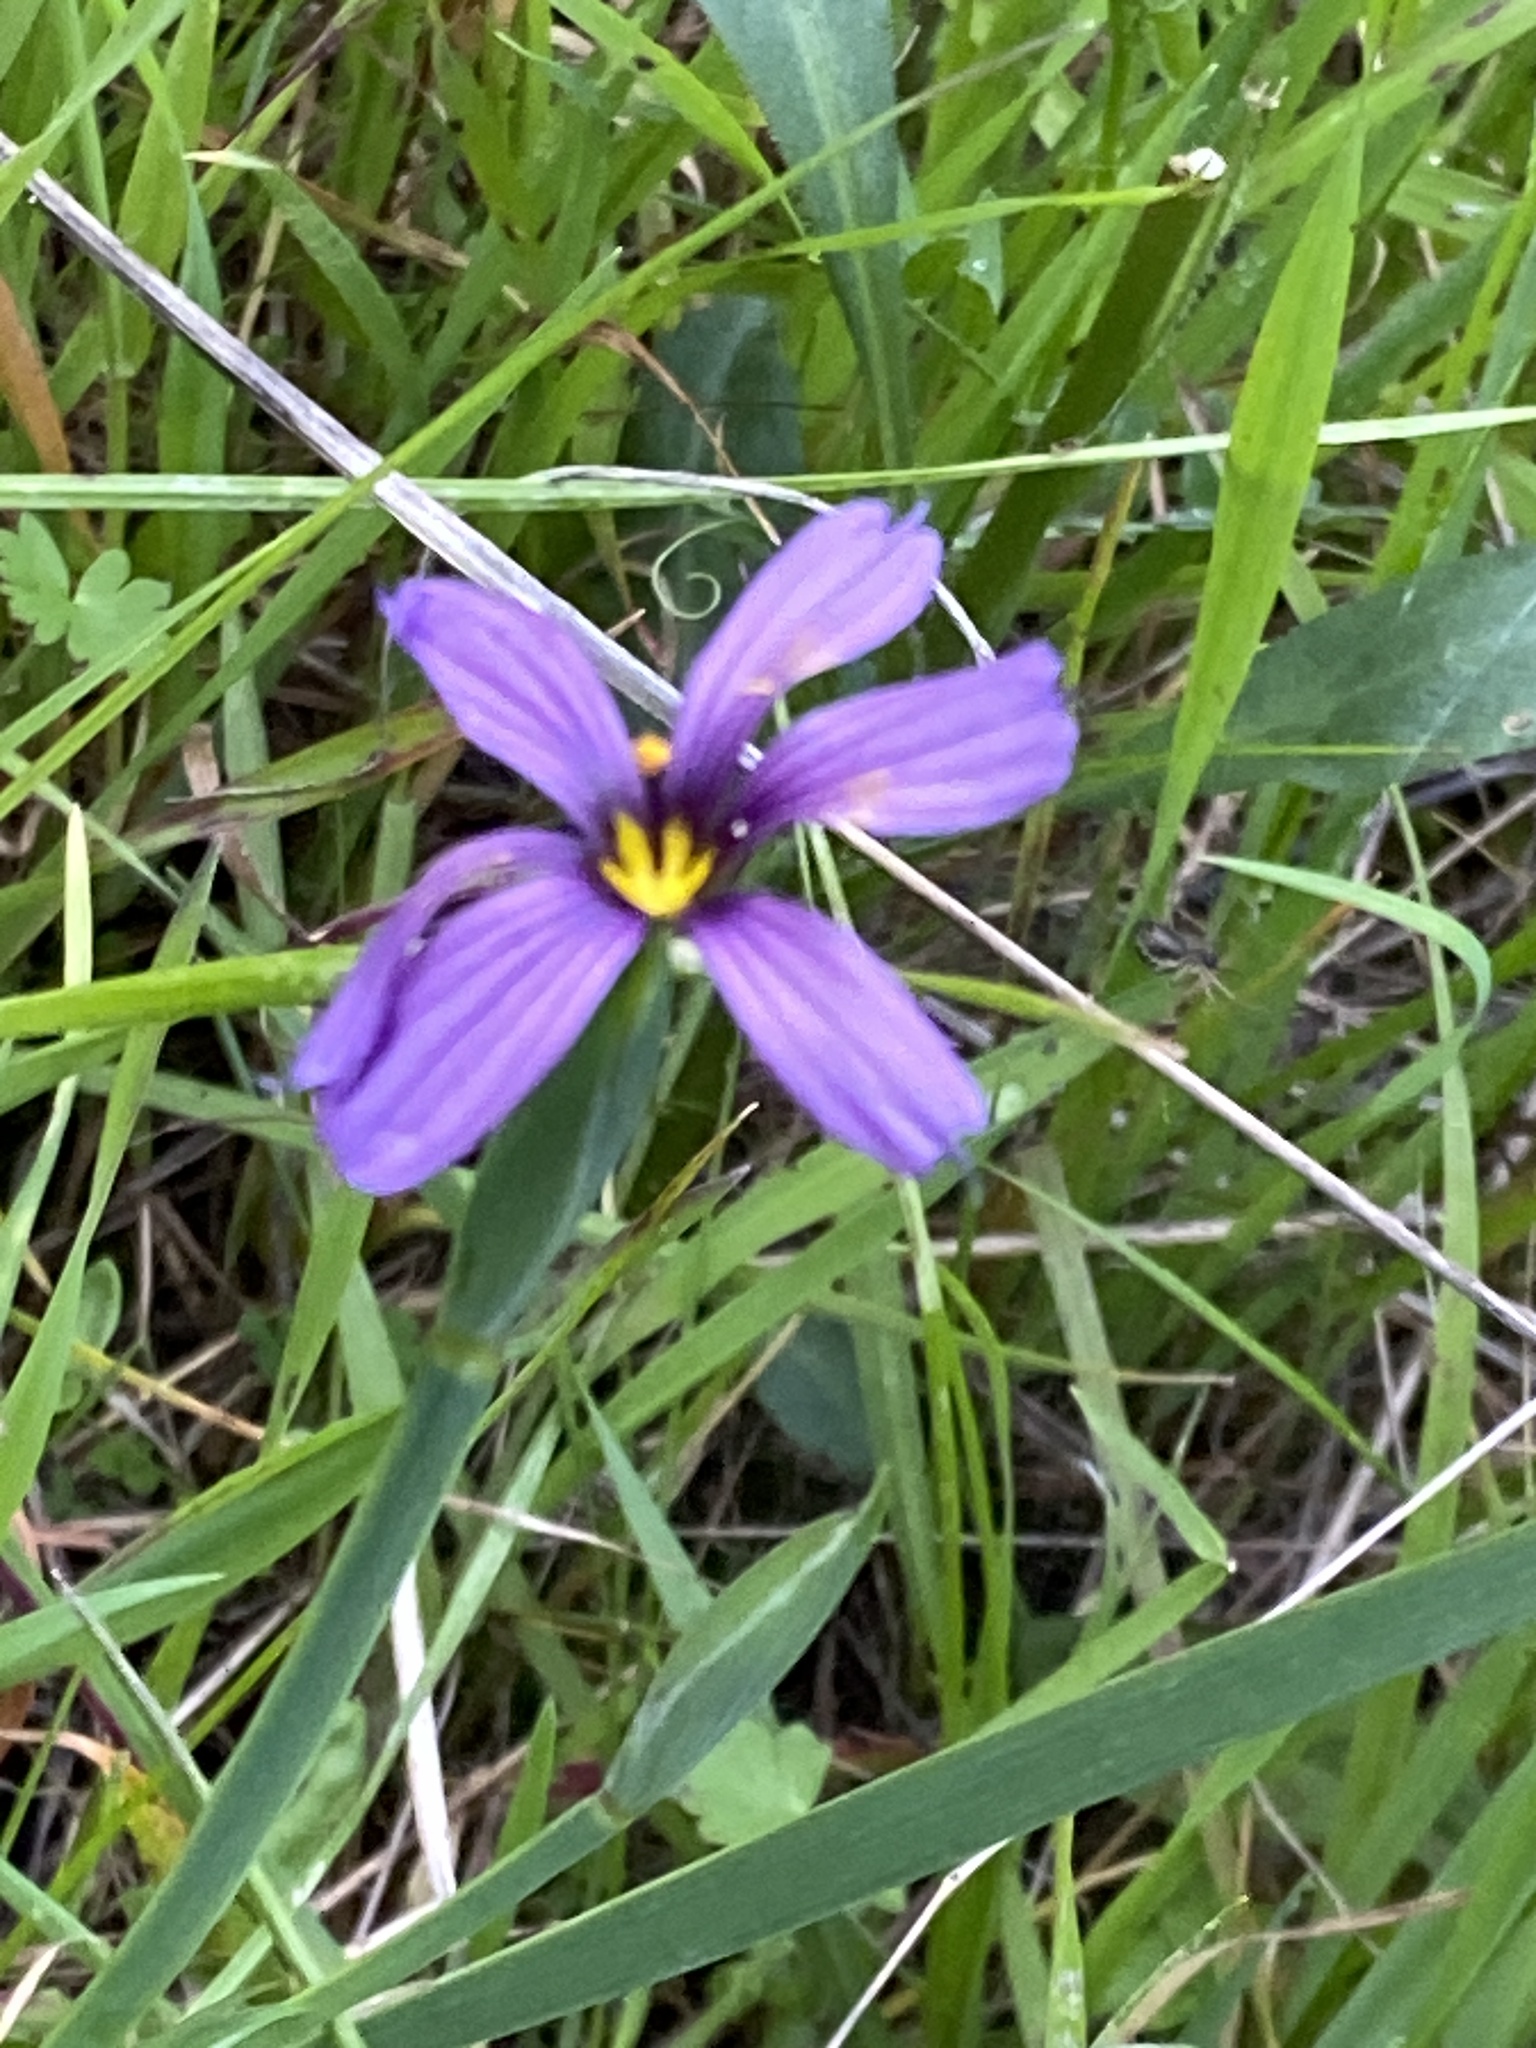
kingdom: Plantae
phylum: Tracheophyta
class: Liliopsida
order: Asparagales
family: Iridaceae
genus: Sisyrinchium
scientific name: Sisyrinchium bellum
